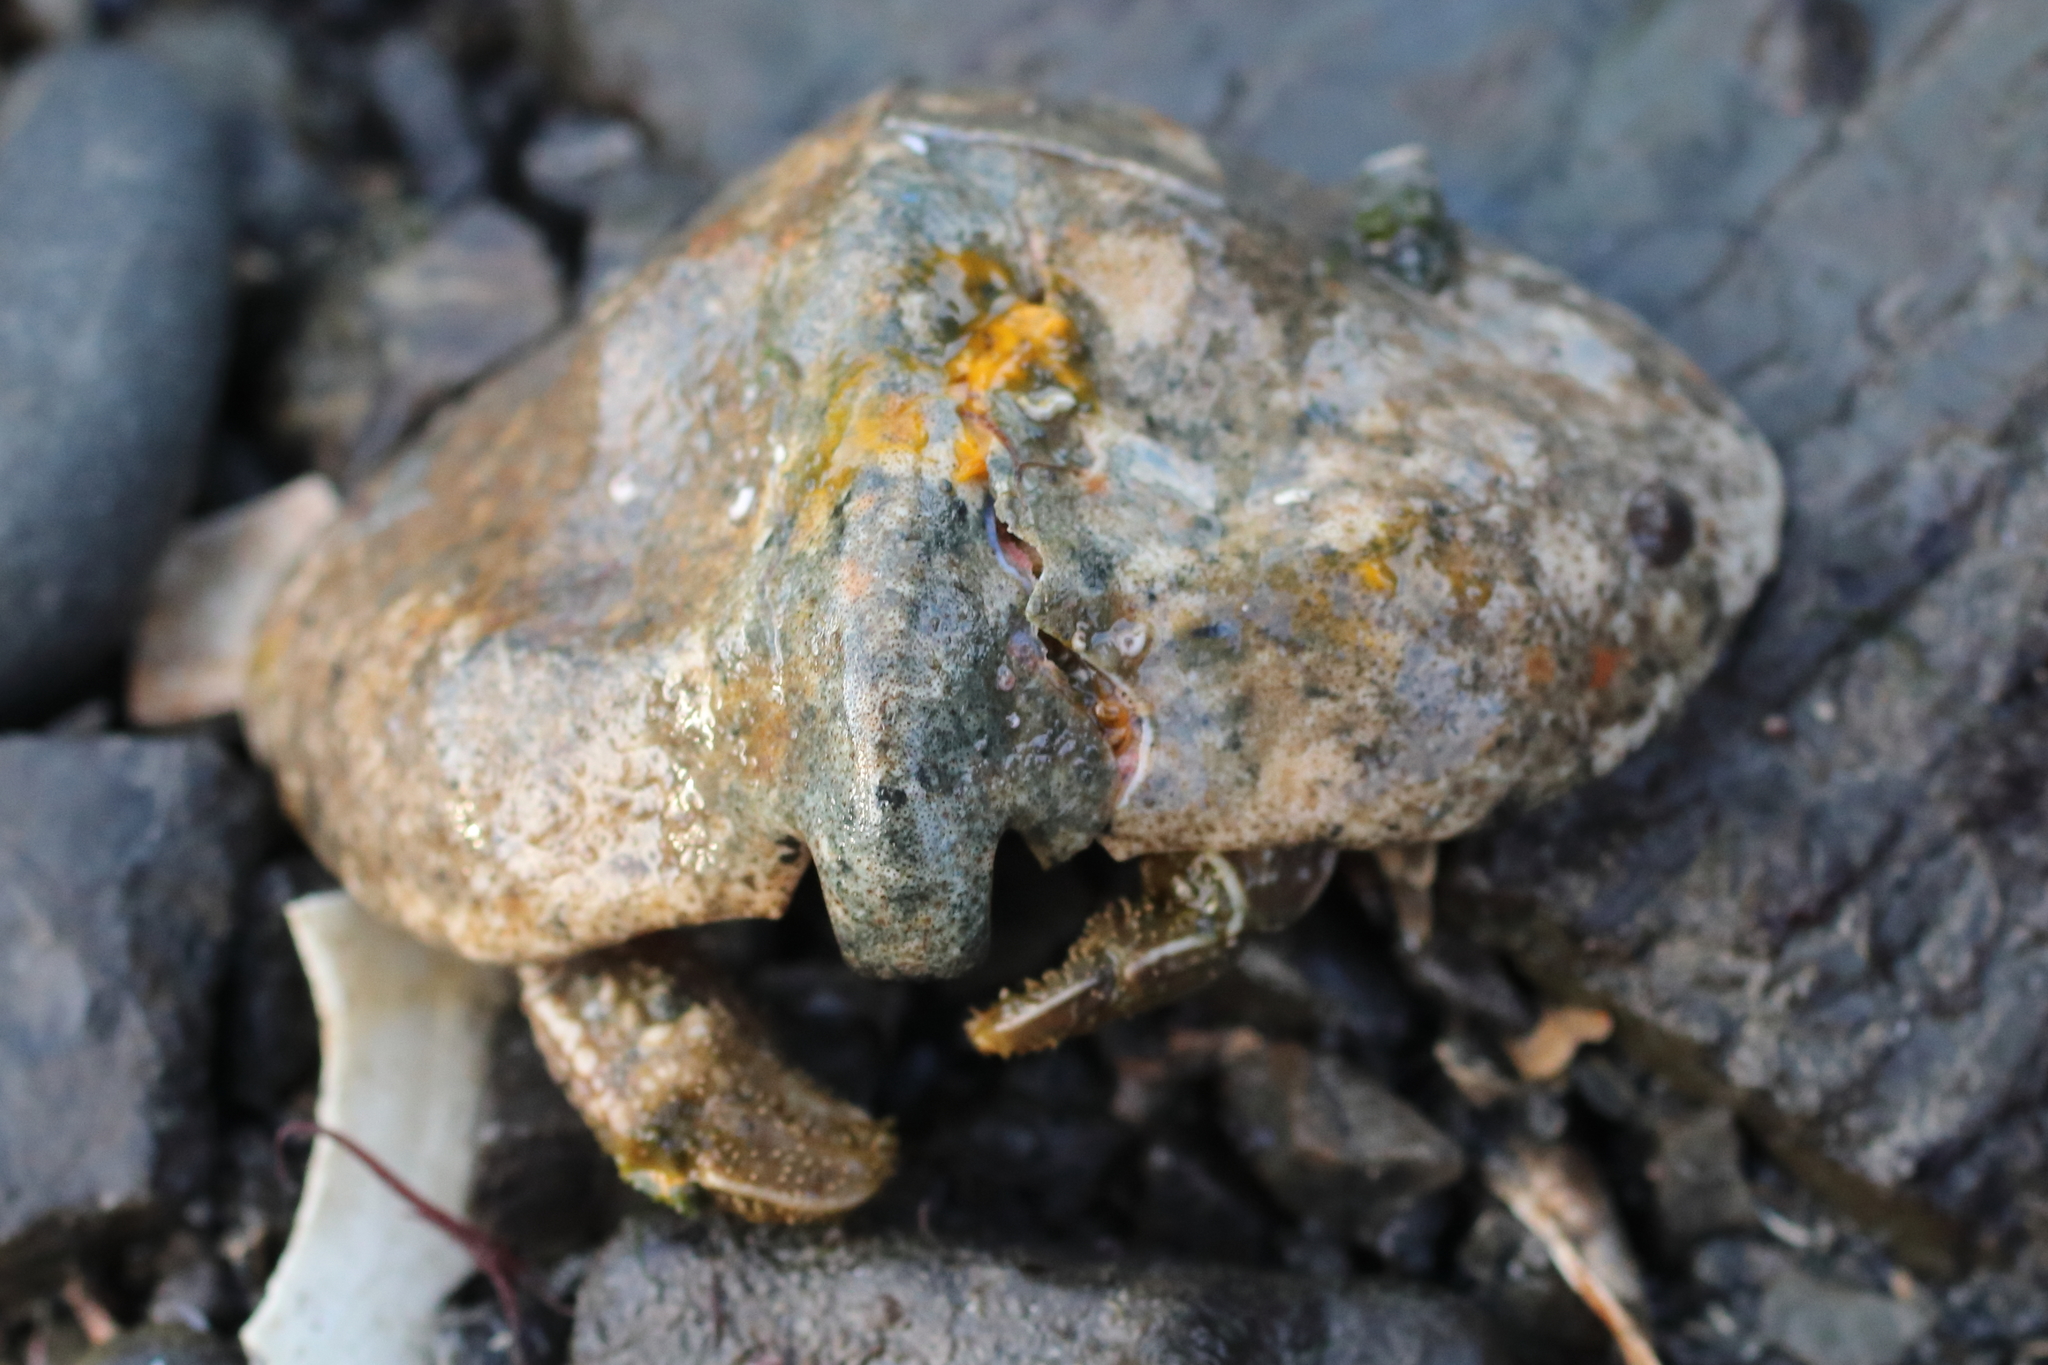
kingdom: Animalia
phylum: Arthropoda
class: Malacostraca
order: Decapoda
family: Lithodidae
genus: Cryptolithodes
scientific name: Cryptolithodes typicus
